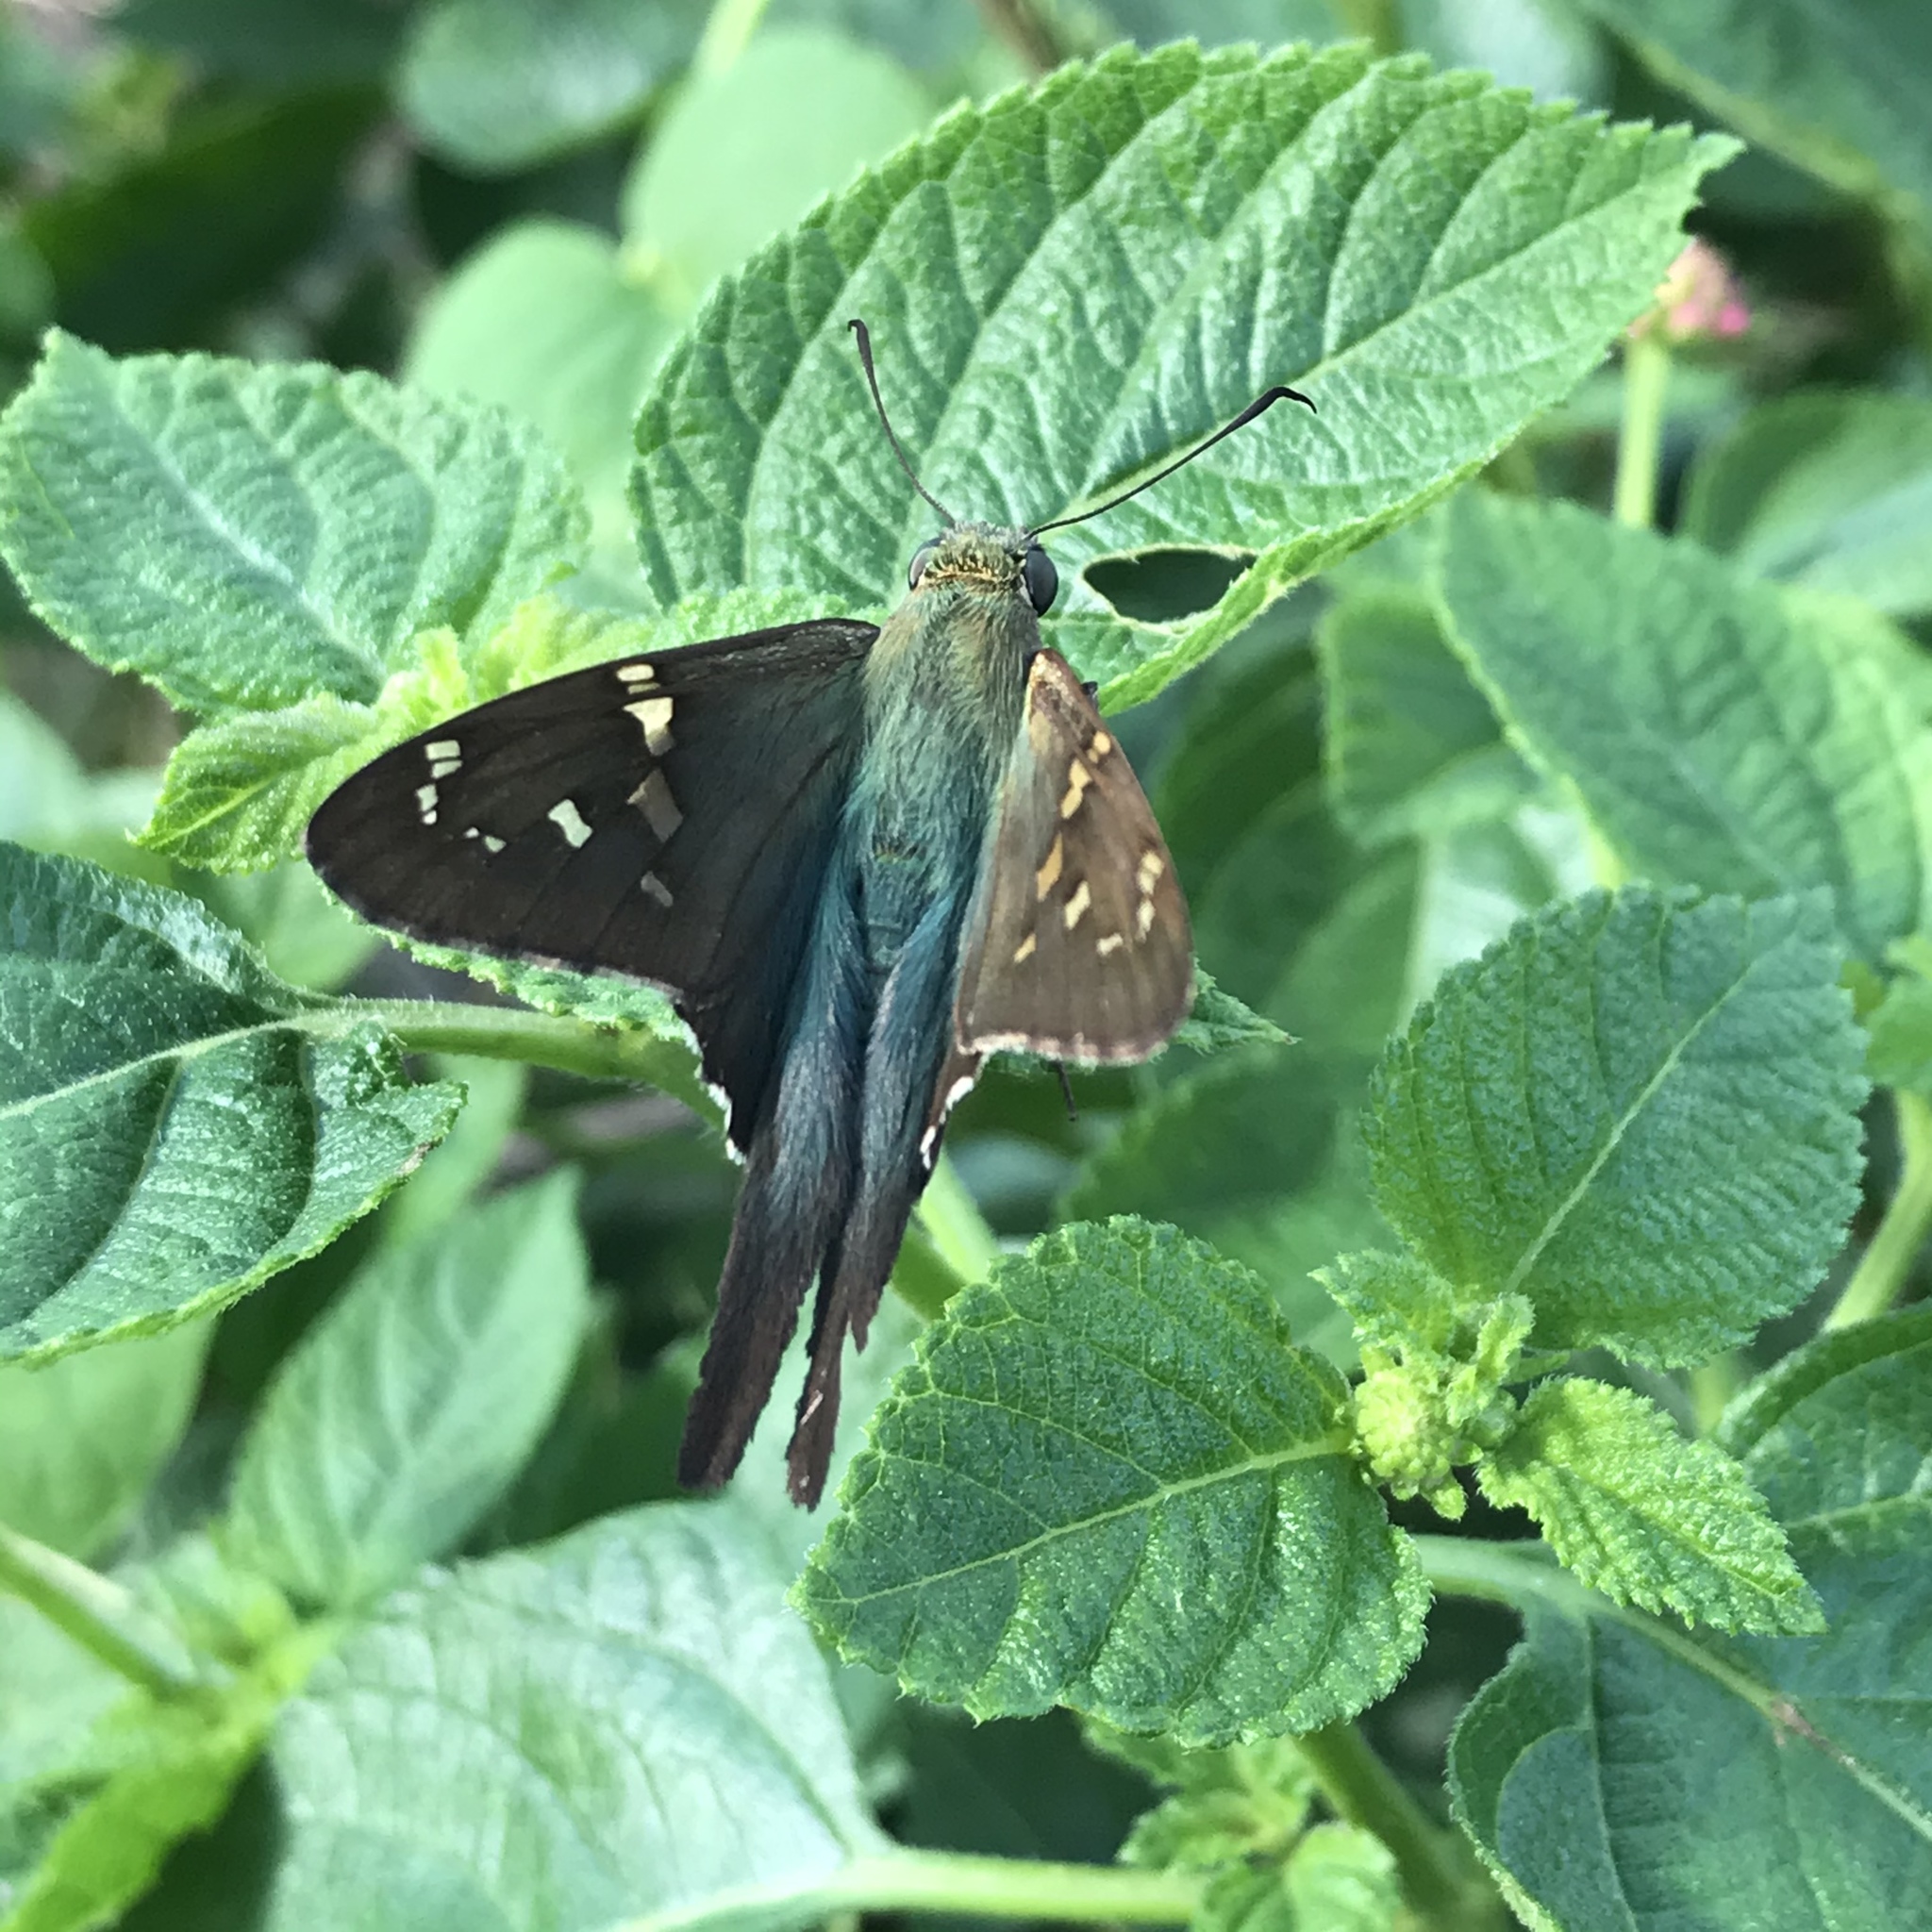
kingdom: Animalia
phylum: Arthropoda
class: Insecta
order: Lepidoptera
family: Hesperiidae
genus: Urbanus
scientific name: Urbanus proteus
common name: Long-tailed skipper
